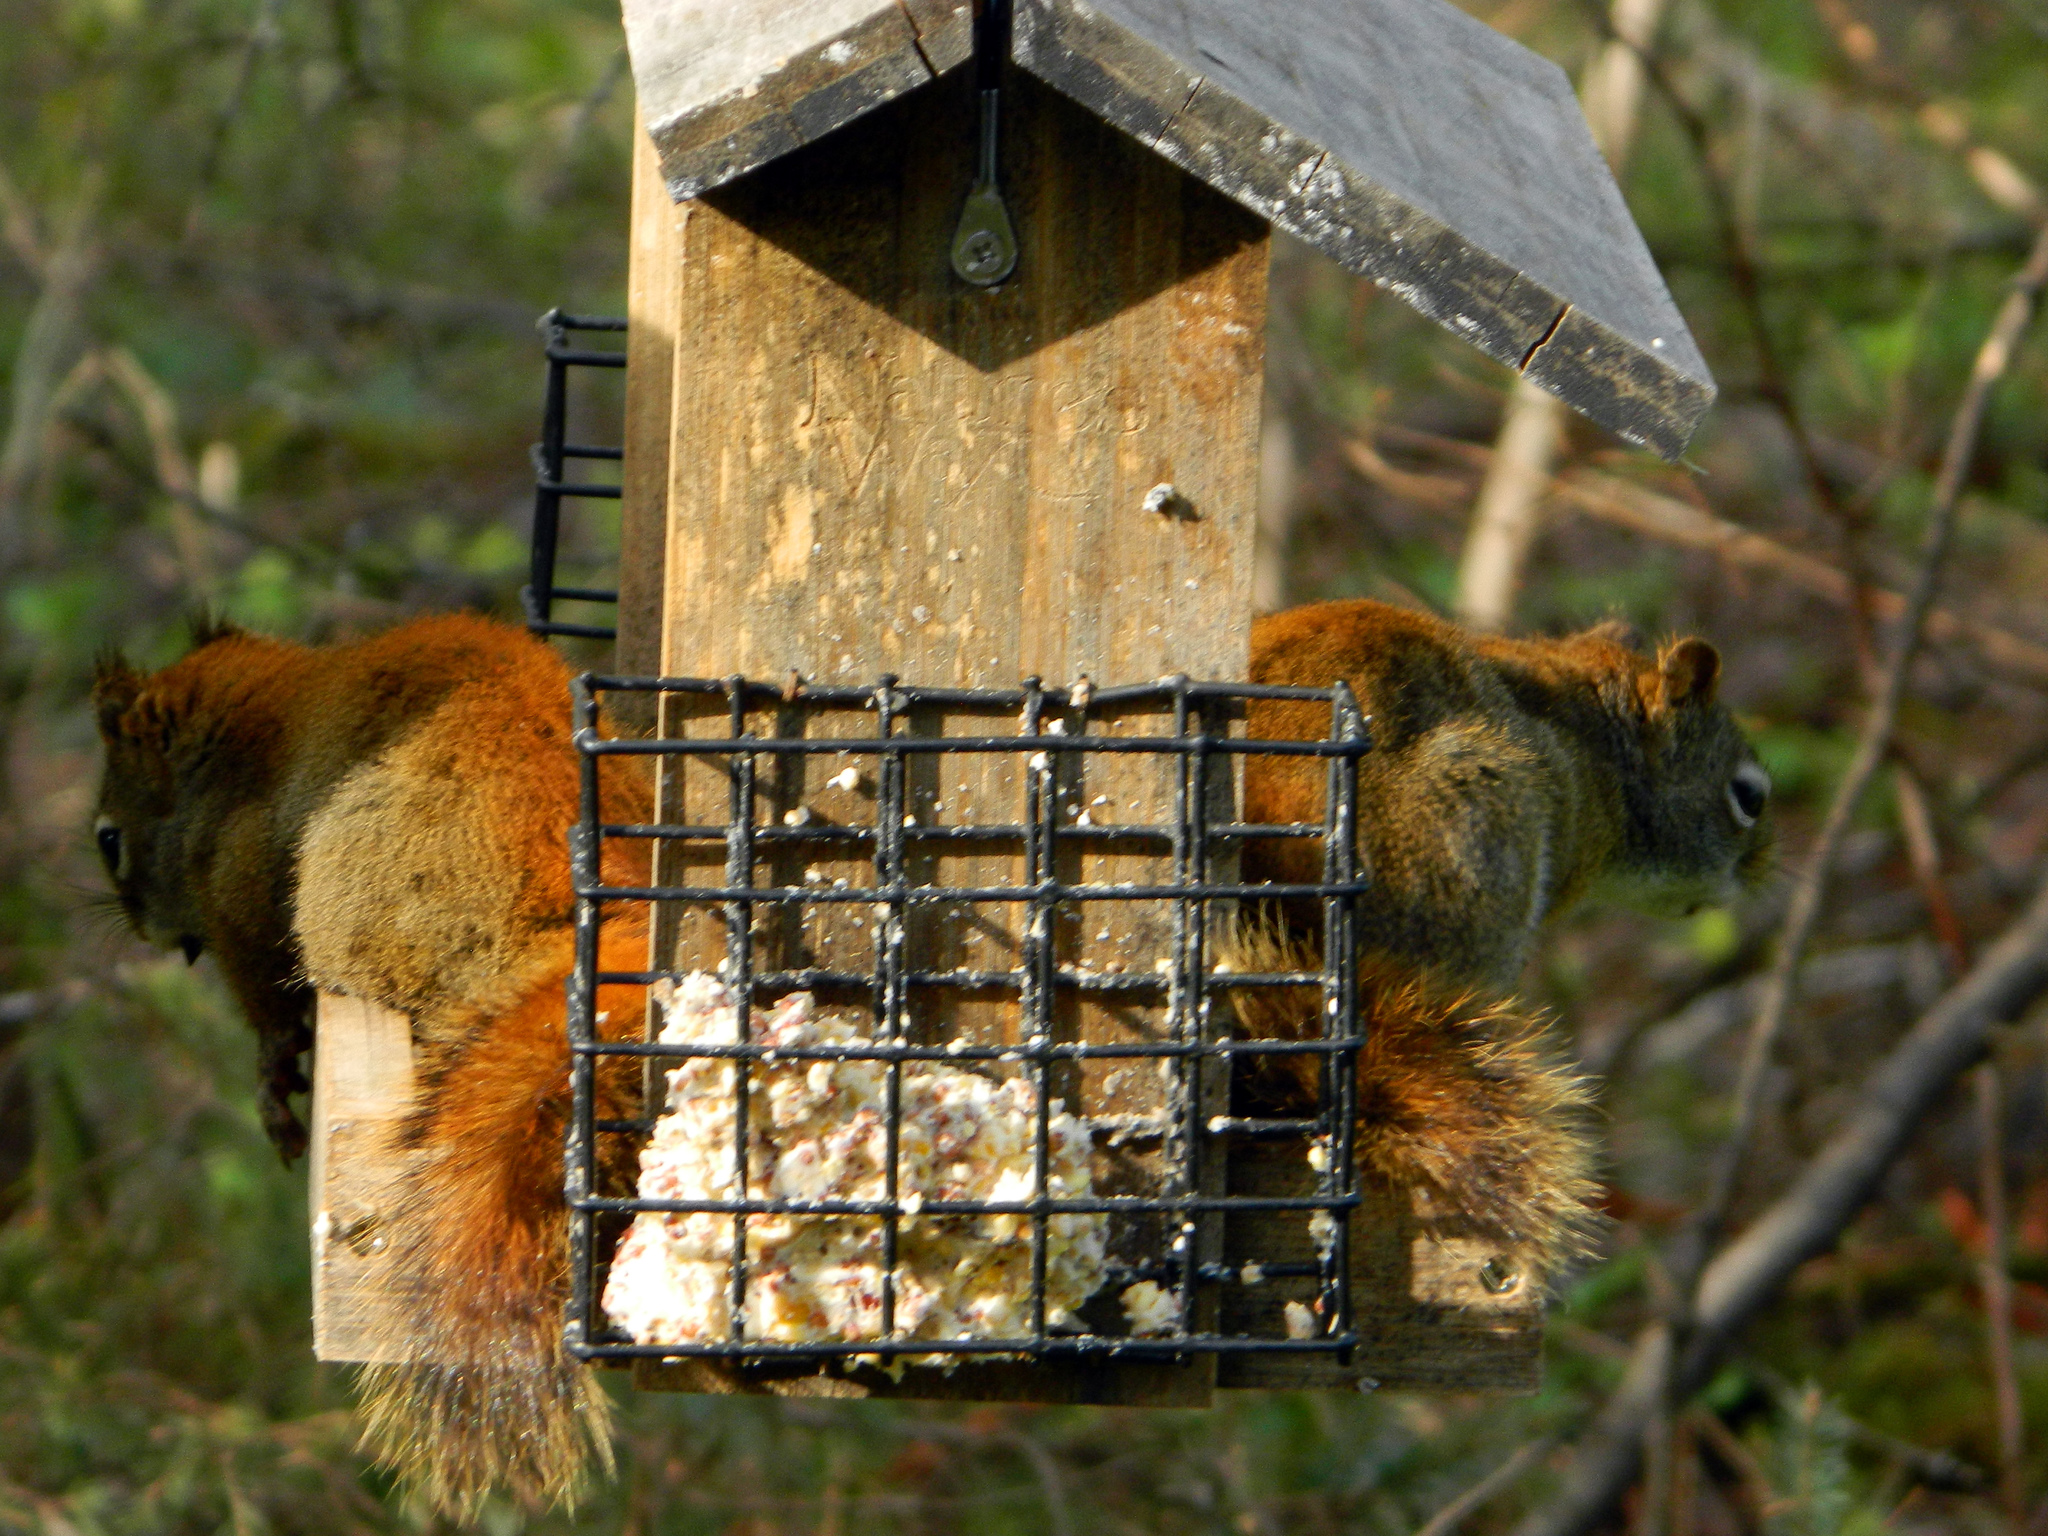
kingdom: Animalia
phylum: Chordata
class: Mammalia
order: Rodentia
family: Sciuridae
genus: Tamiasciurus
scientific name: Tamiasciurus hudsonicus
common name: Red squirrel
